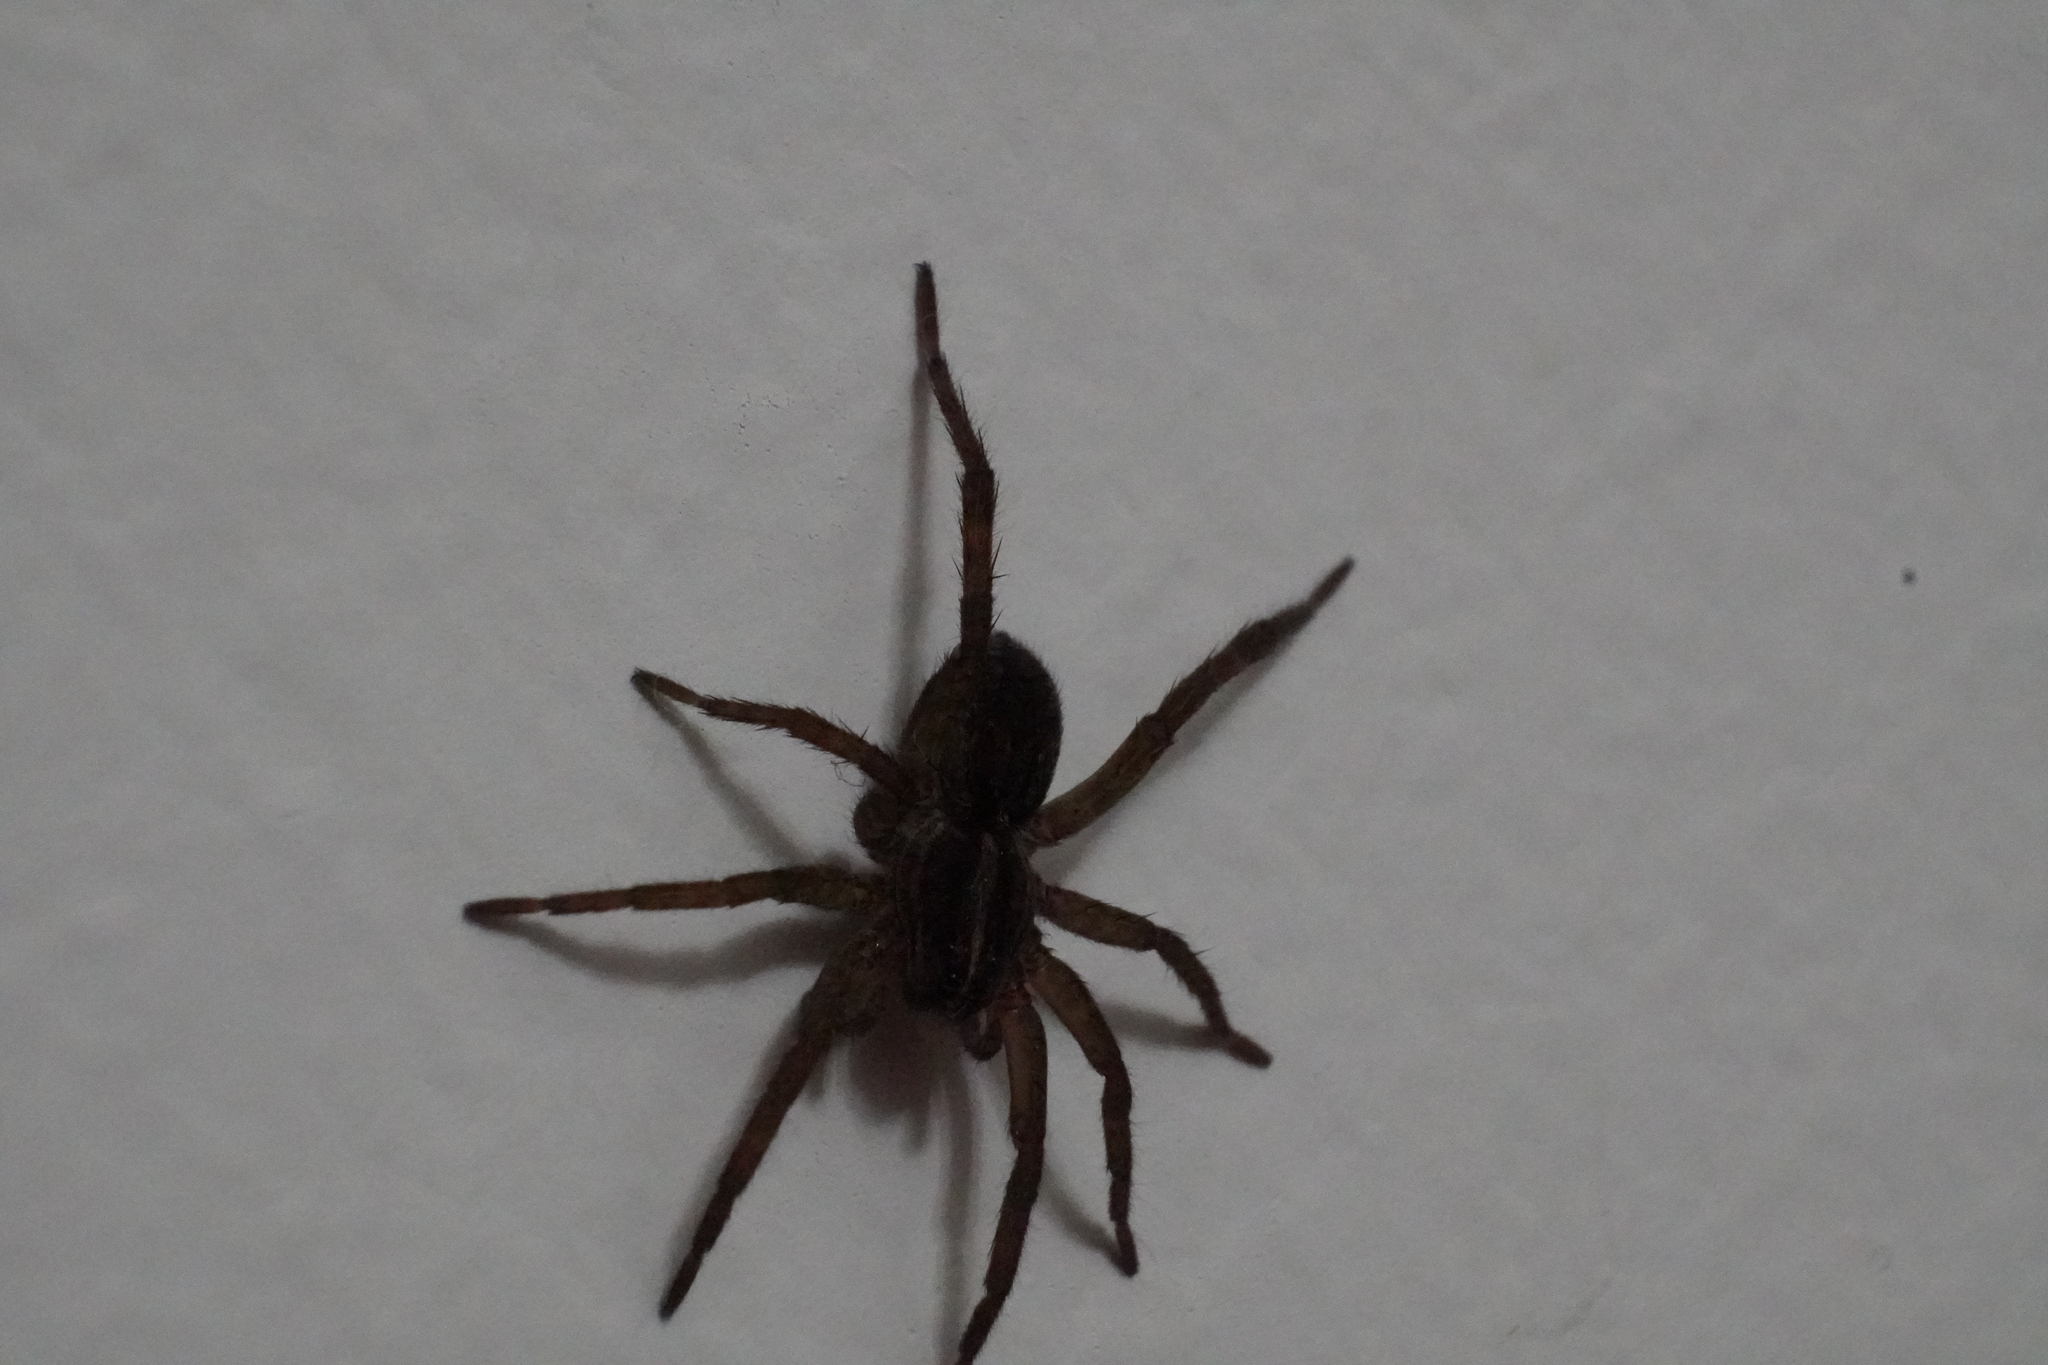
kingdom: Animalia
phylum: Arthropoda
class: Arachnida
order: Araneae
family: Lycosidae
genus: Tigrosa
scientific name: Tigrosa helluo
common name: Wetland giant wolf spider
